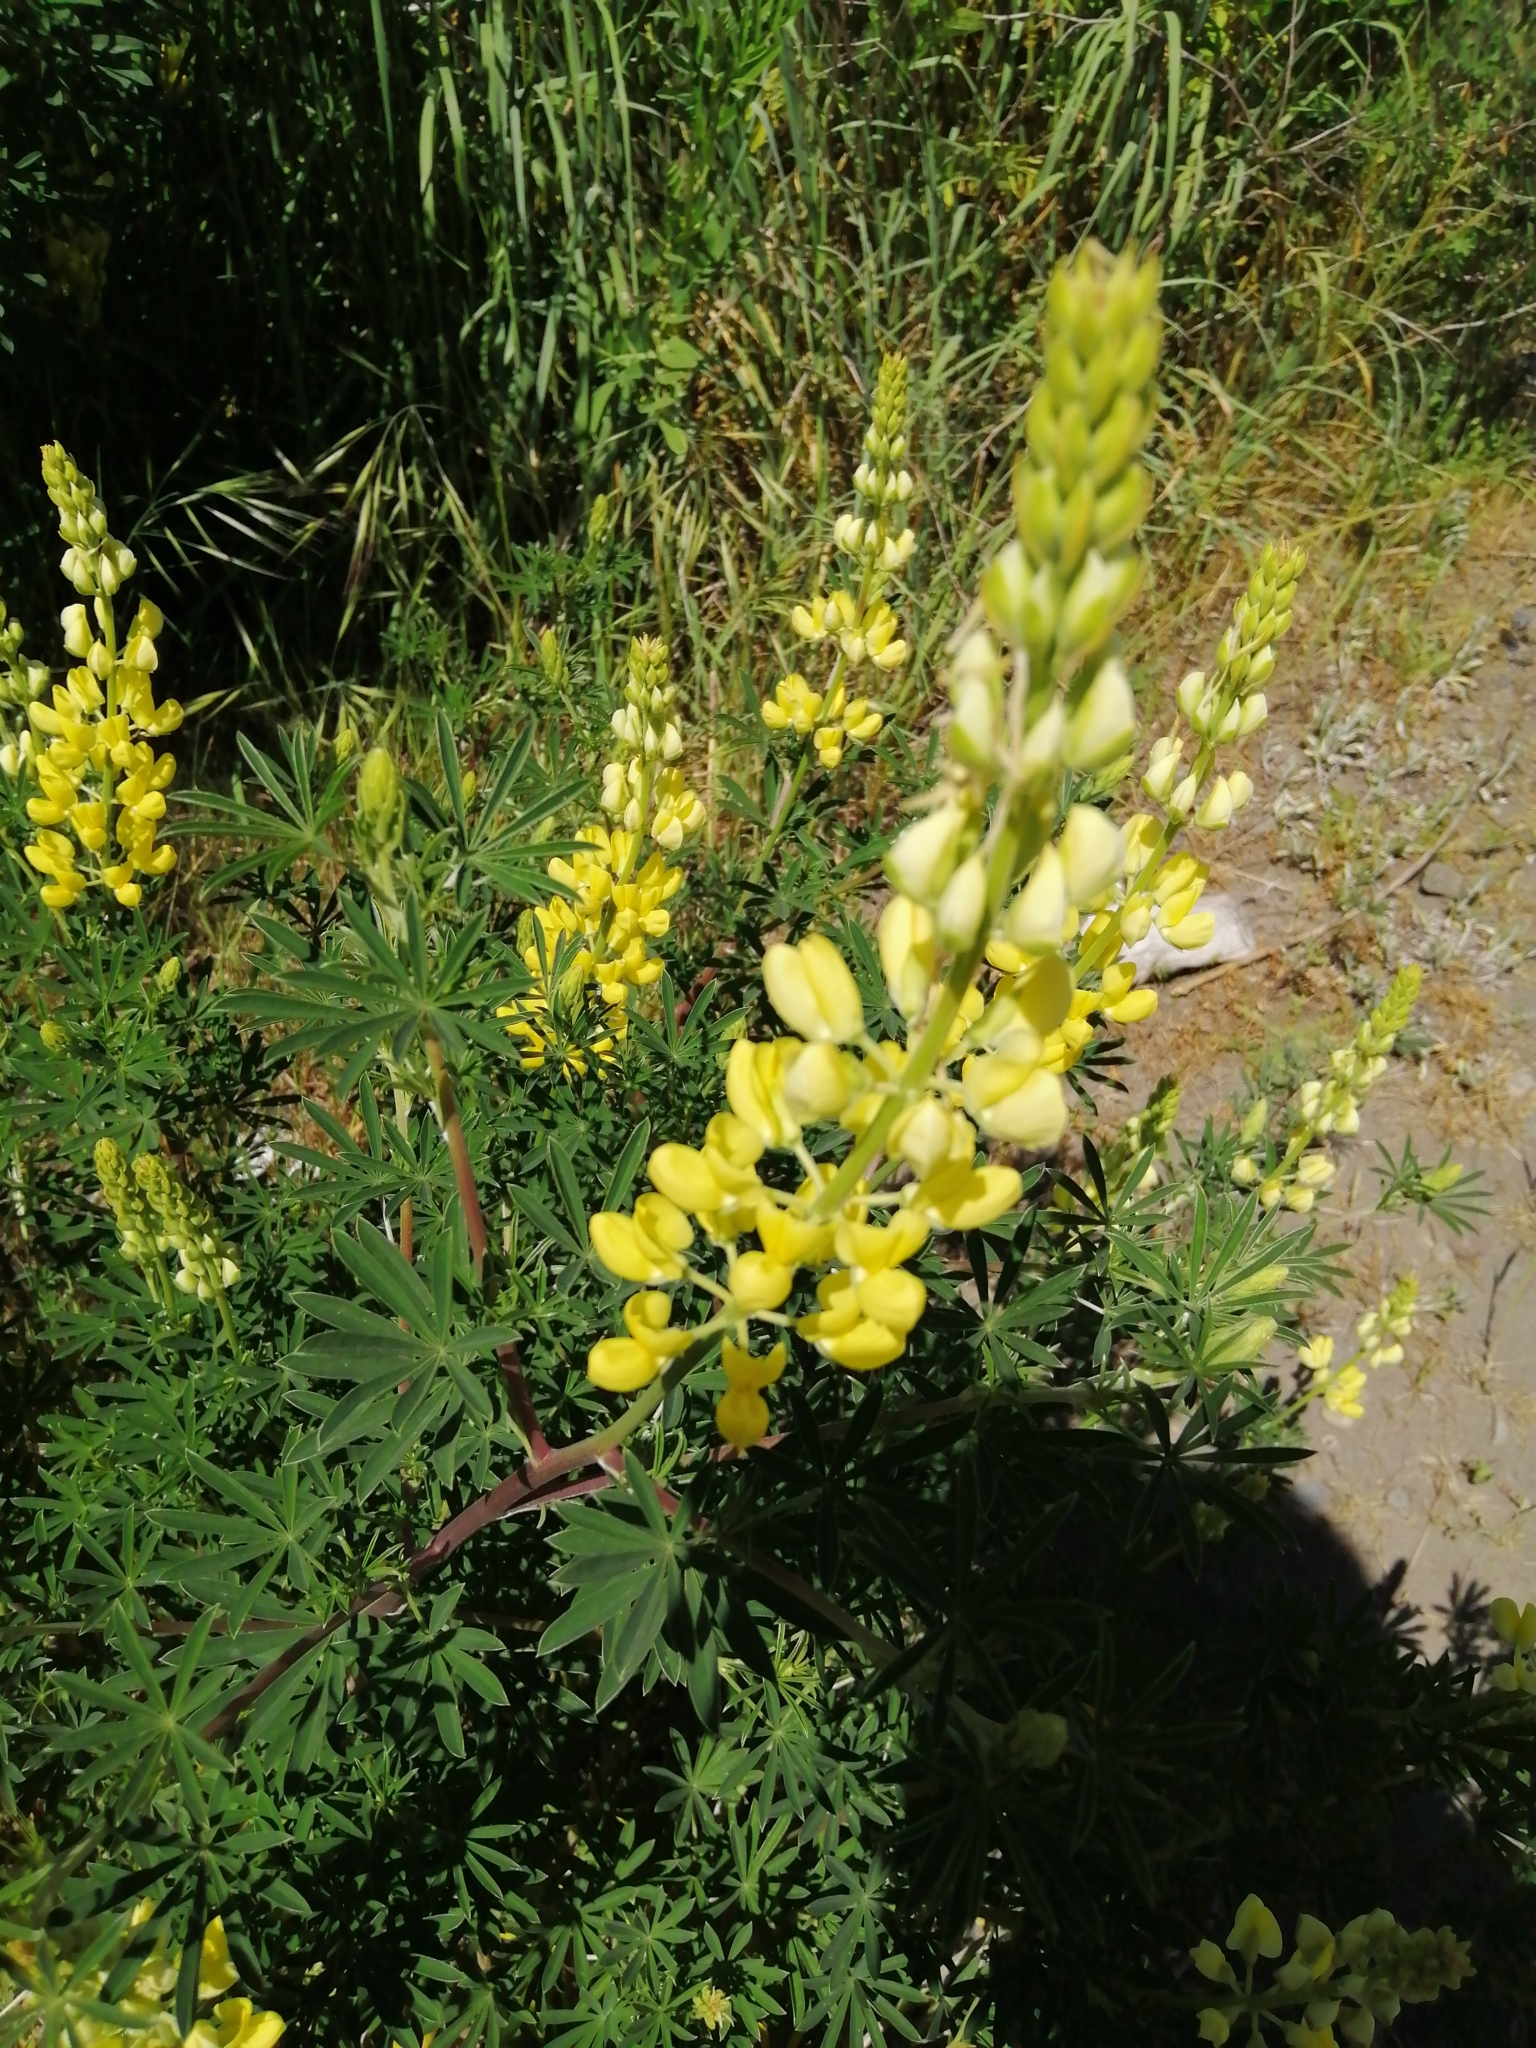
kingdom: Plantae
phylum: Tracheophyta
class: Magnoliopsida
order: Fabales
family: Fabaceae
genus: Lupinus
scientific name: Lupinus arboreus
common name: Yellow bush lupine
